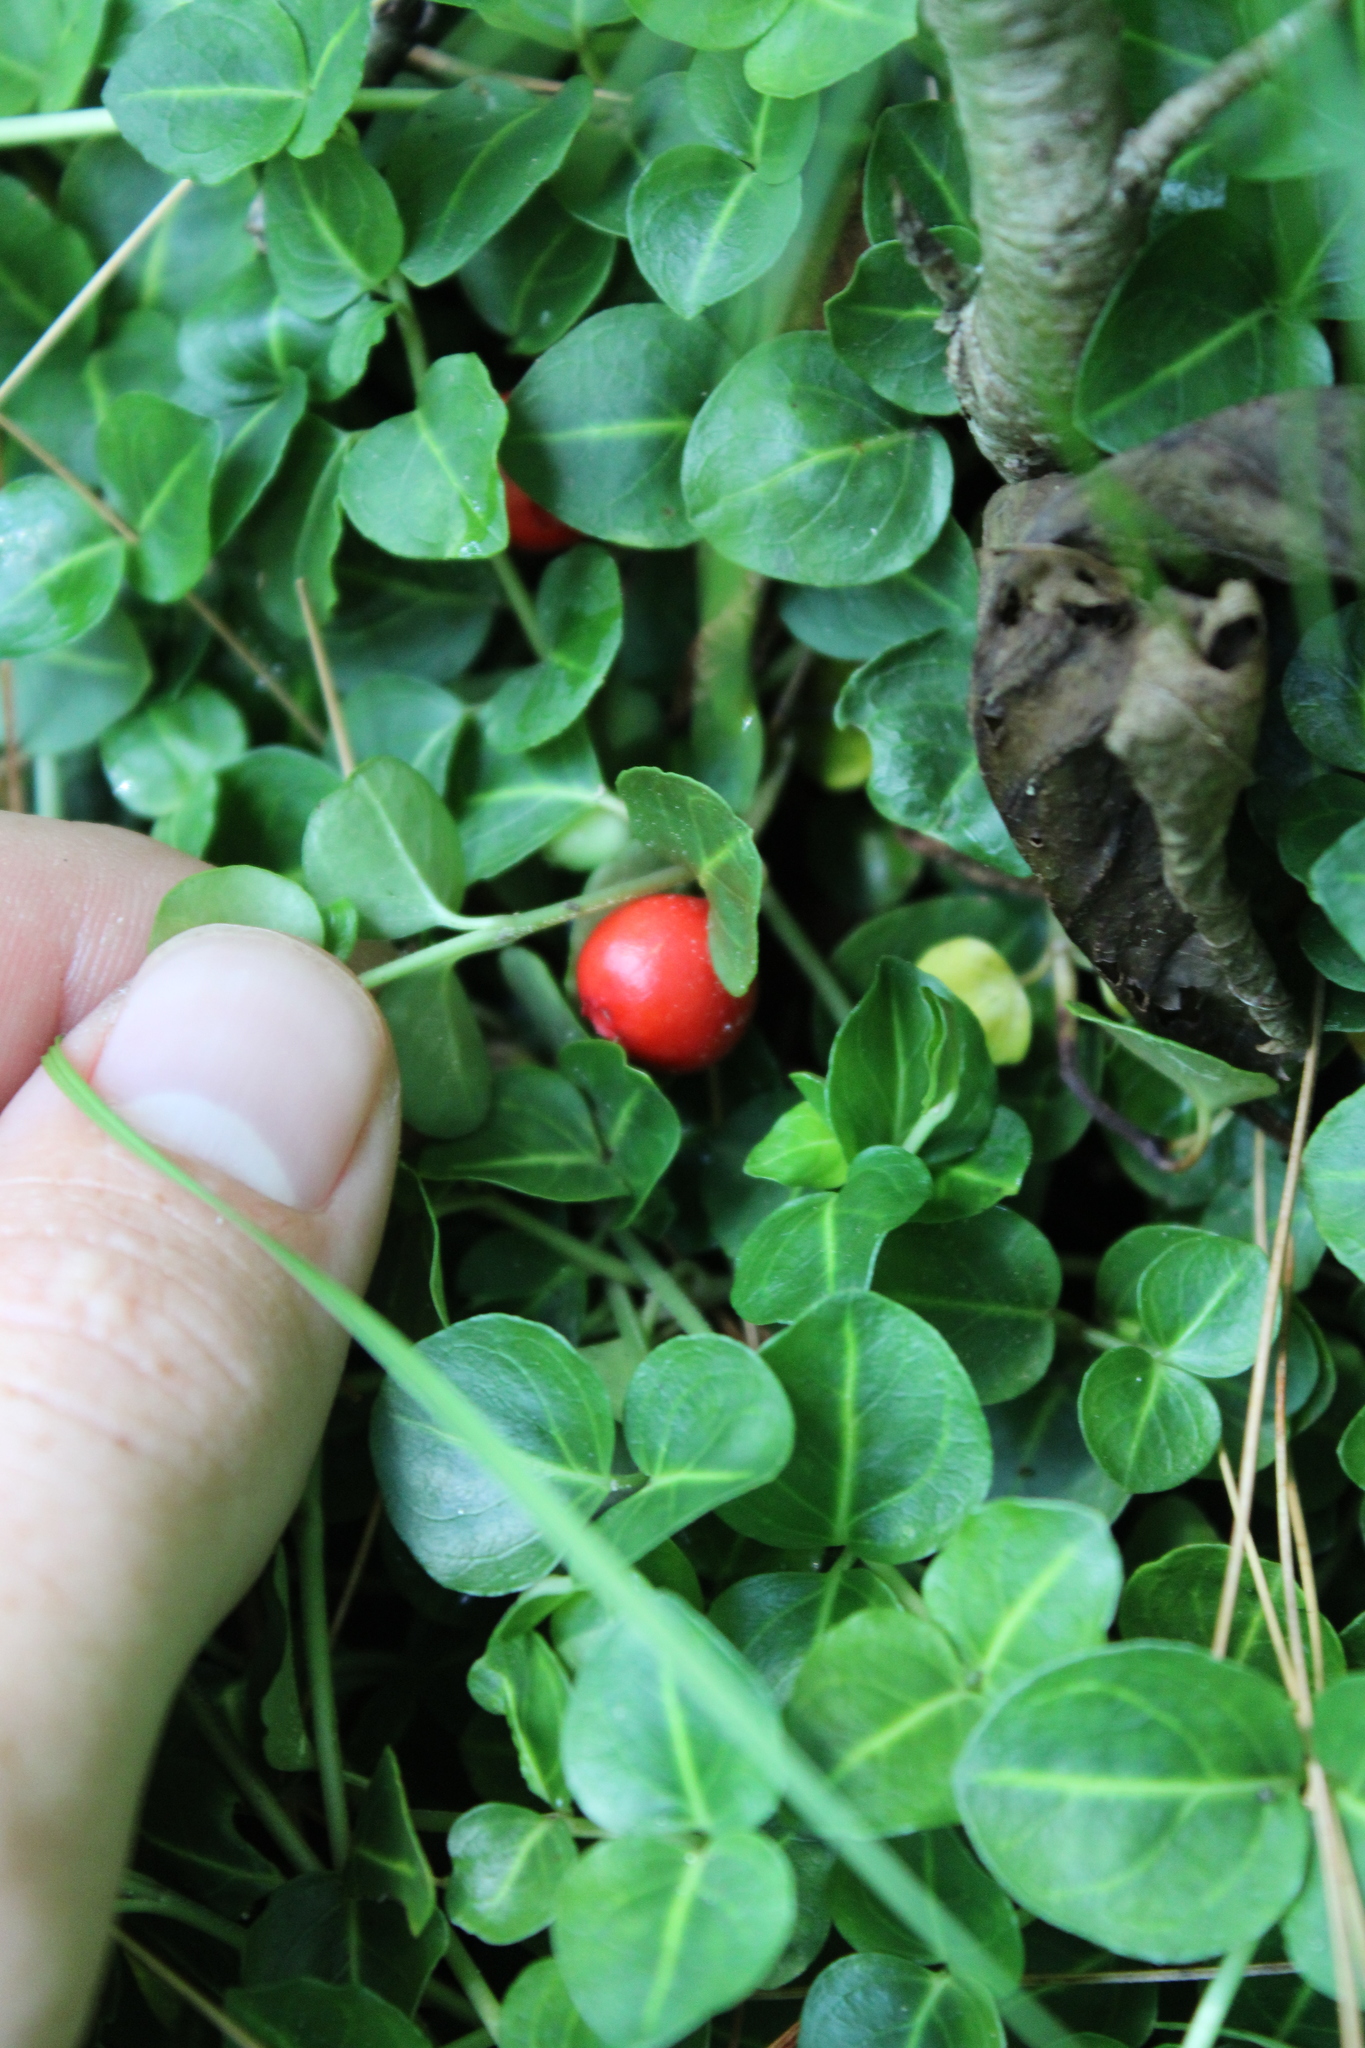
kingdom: Plantae
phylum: Tracheophyta
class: Magnoliopsida
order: Gentianales
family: Rubiaceae
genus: Mitchella
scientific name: Mitchella repens
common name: Partridge-berry
